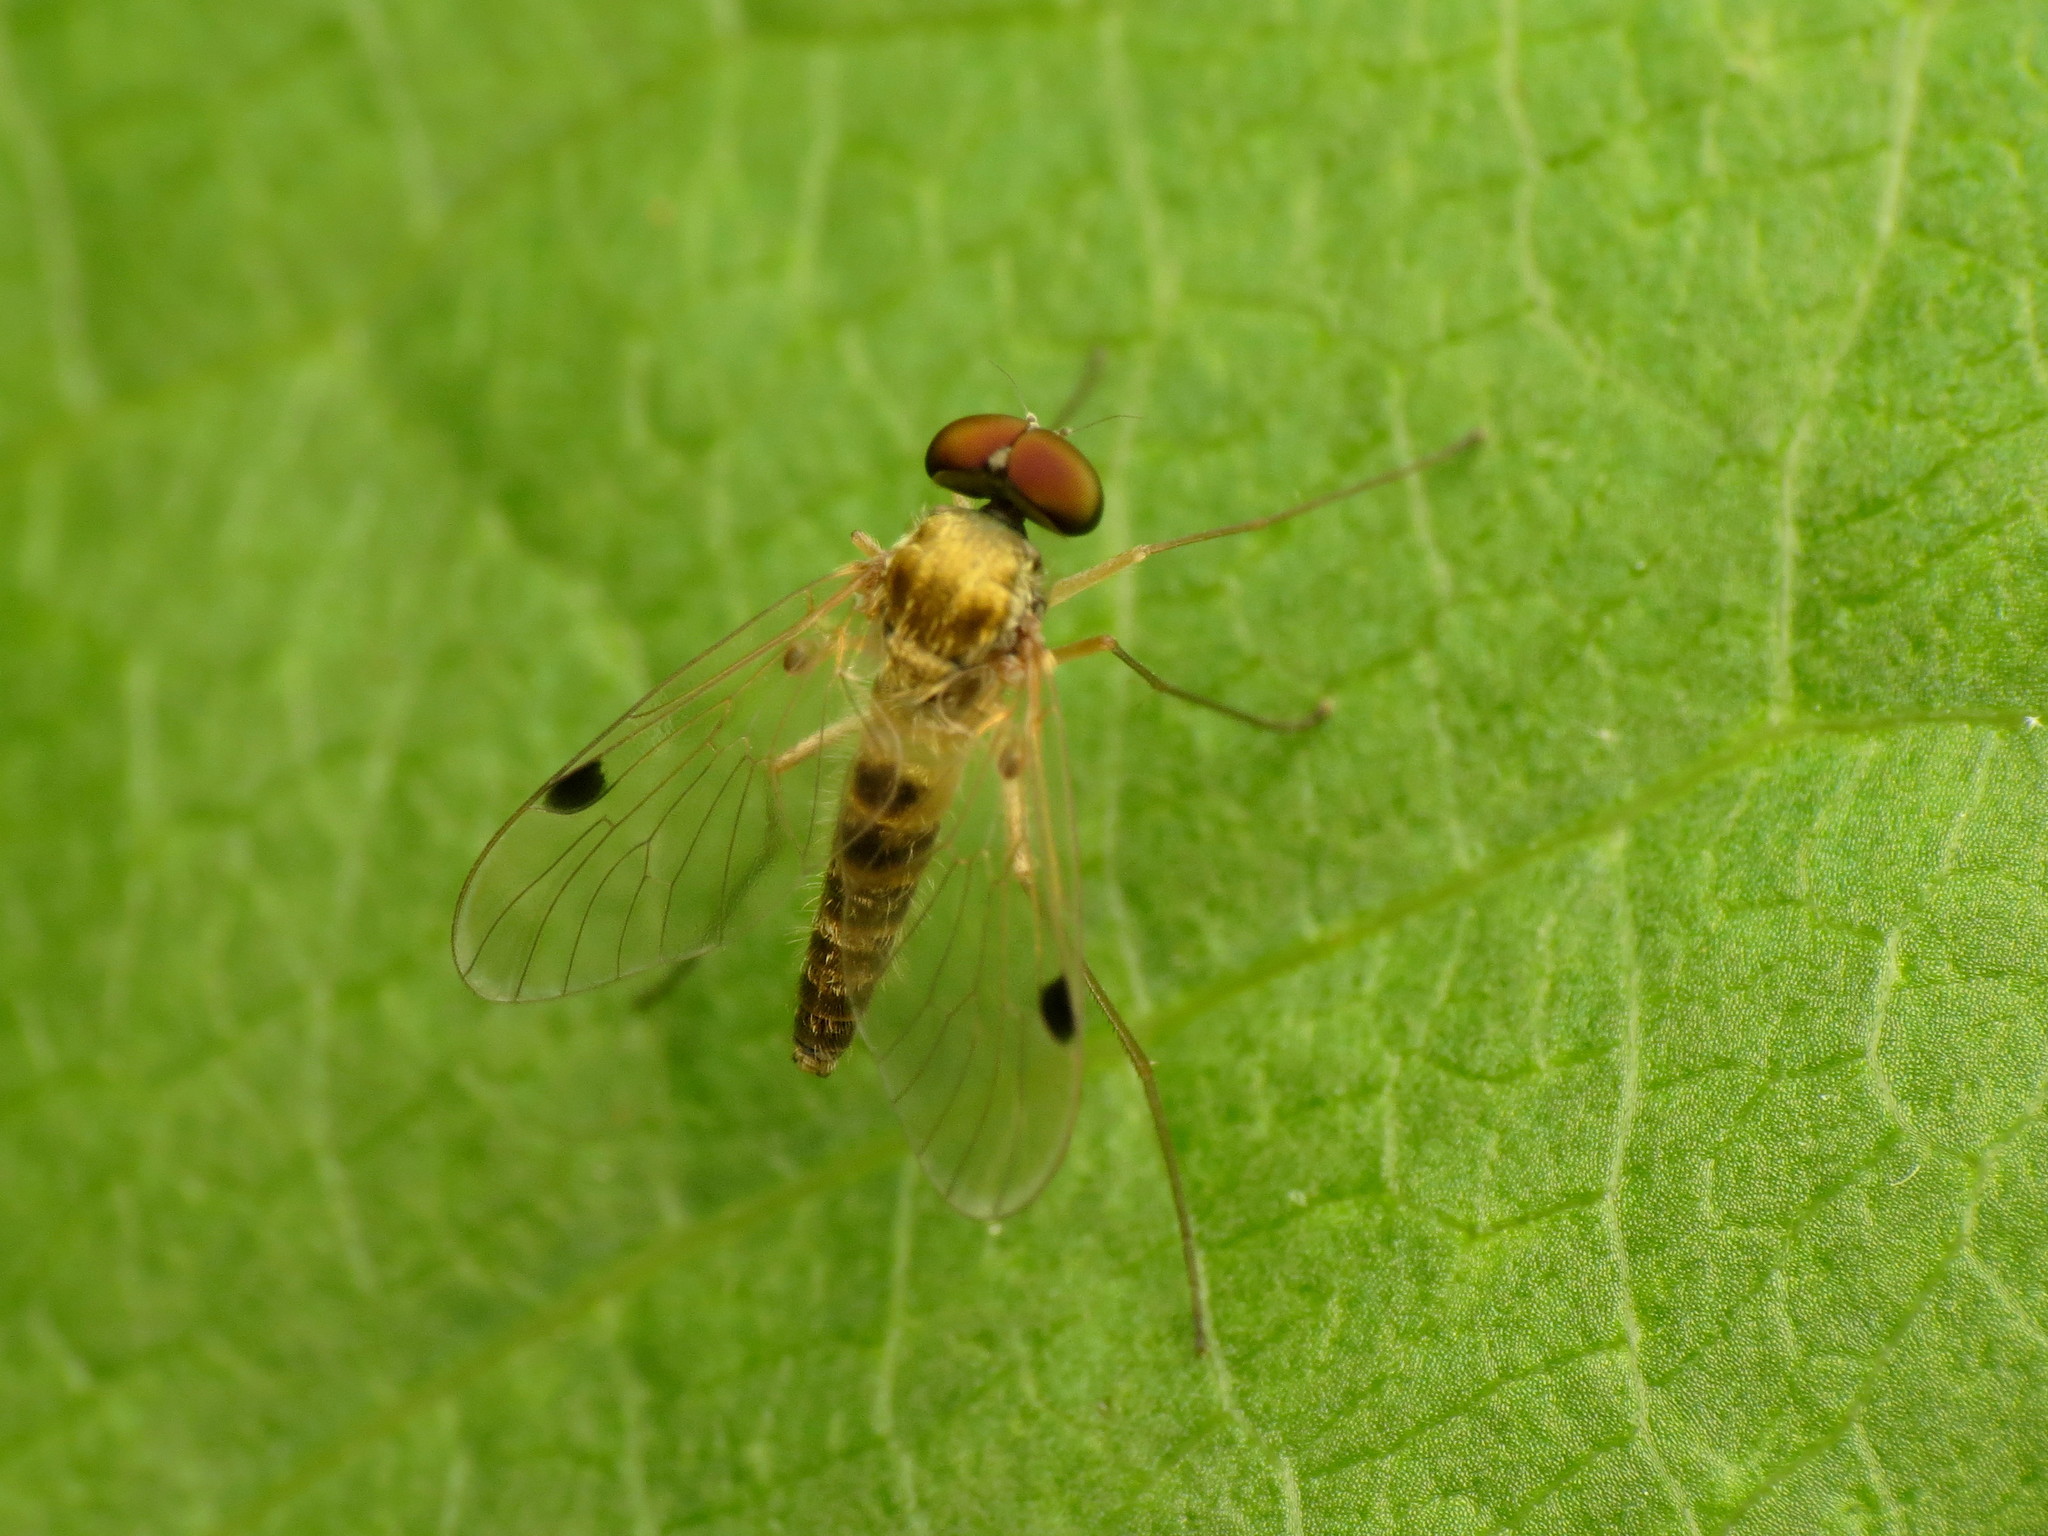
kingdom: Animalia
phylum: Arthropoda
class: Insecta
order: Diptera
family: Rhagionidae
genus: Chrysopilus
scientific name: Chrysopilus modestus
